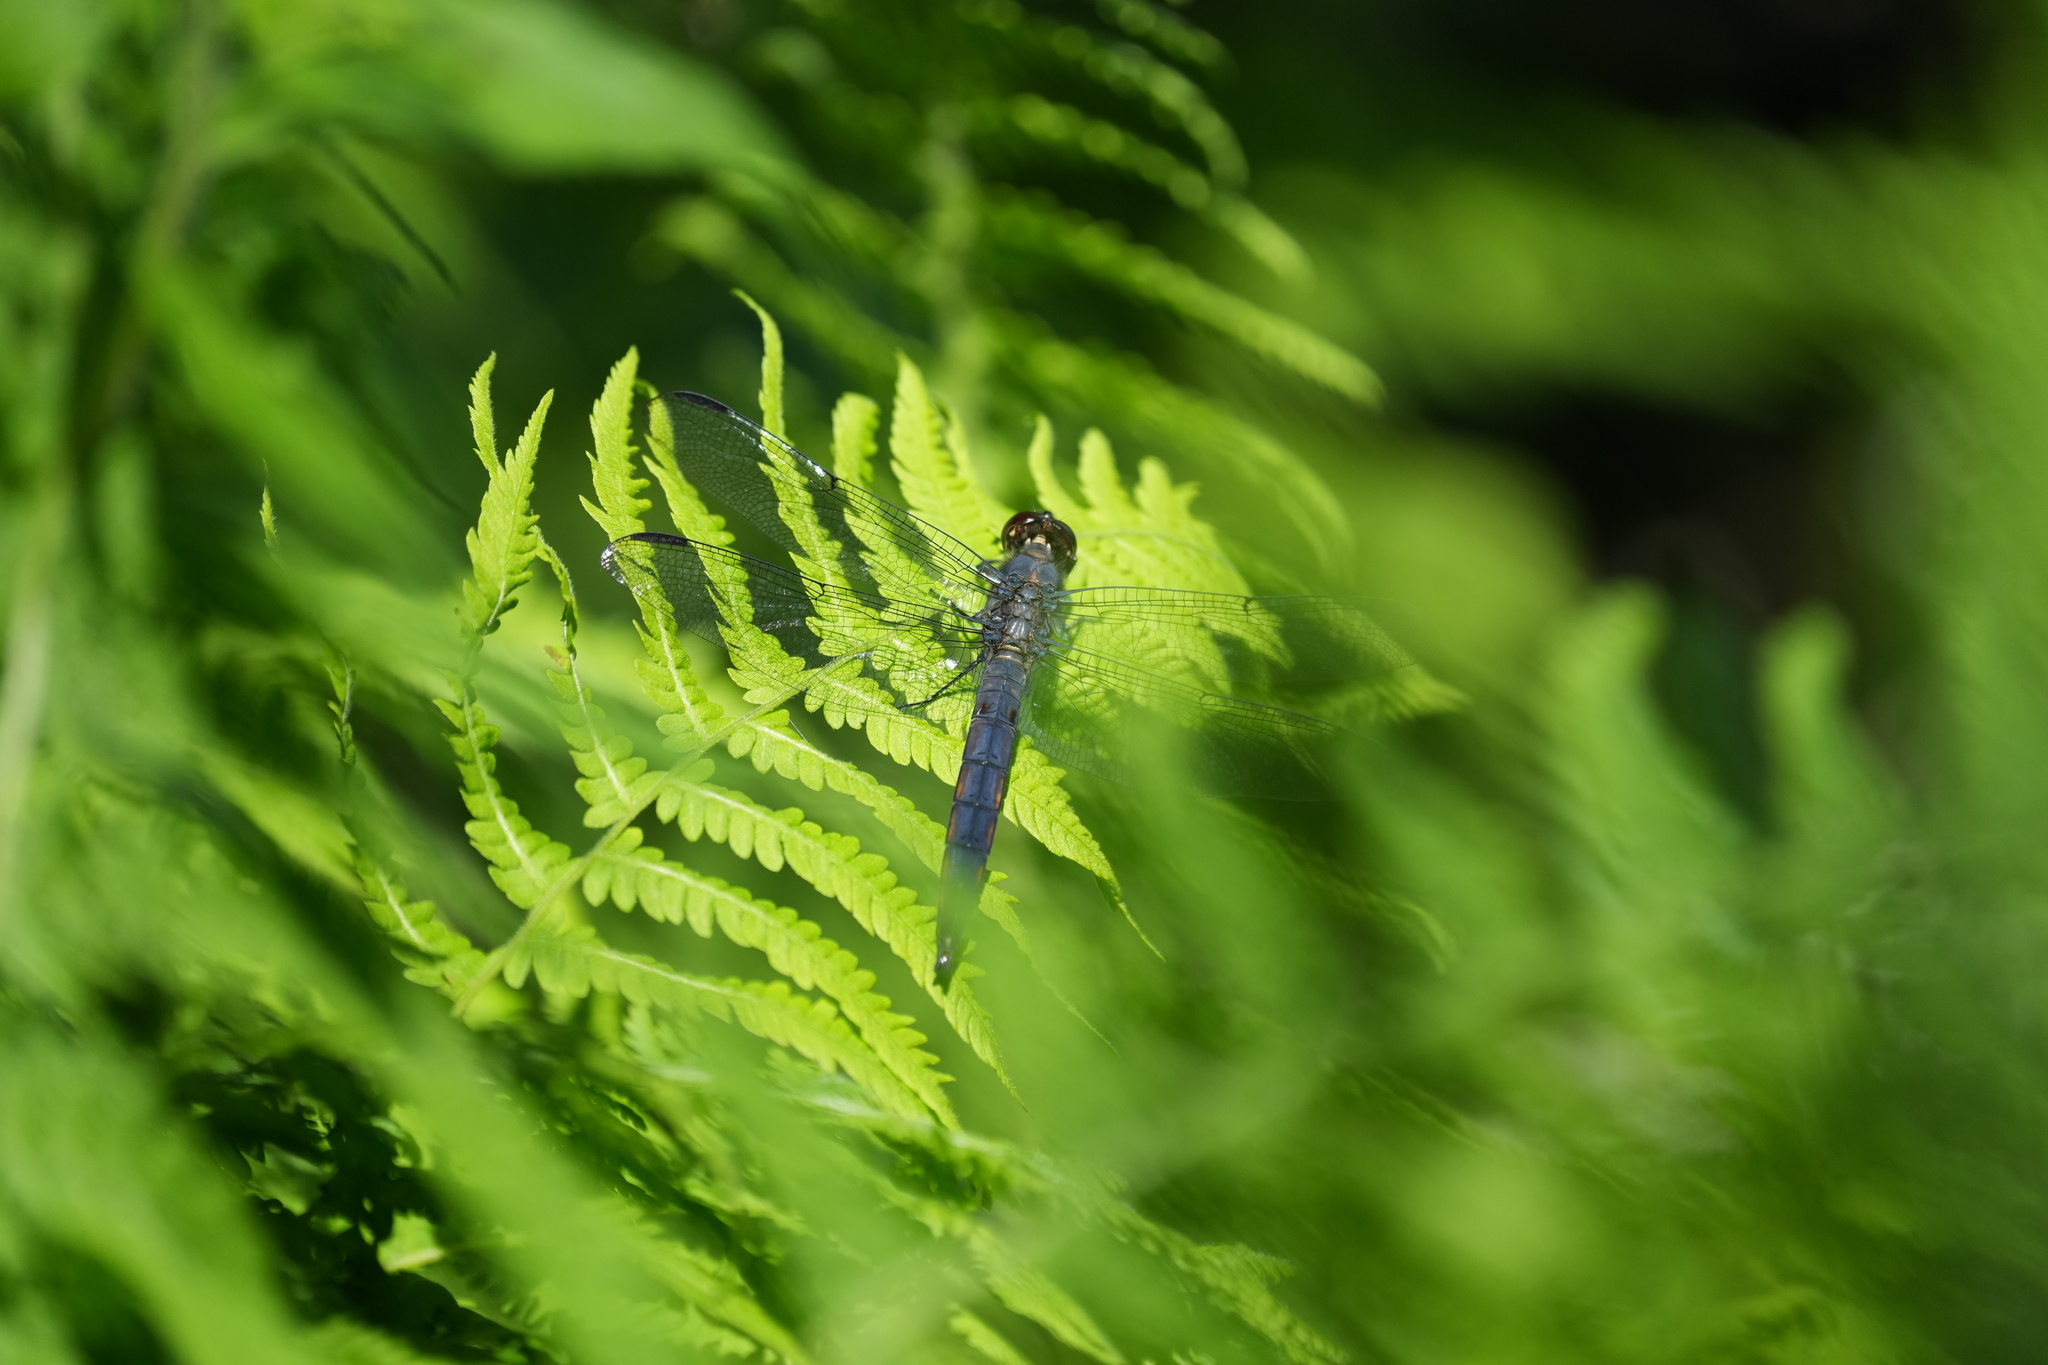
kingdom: Animalia
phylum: Arthropoda
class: Insecta
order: Odonata
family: Libellulidae
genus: Libellula
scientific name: Libellula incesta
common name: Slaty skimmer
